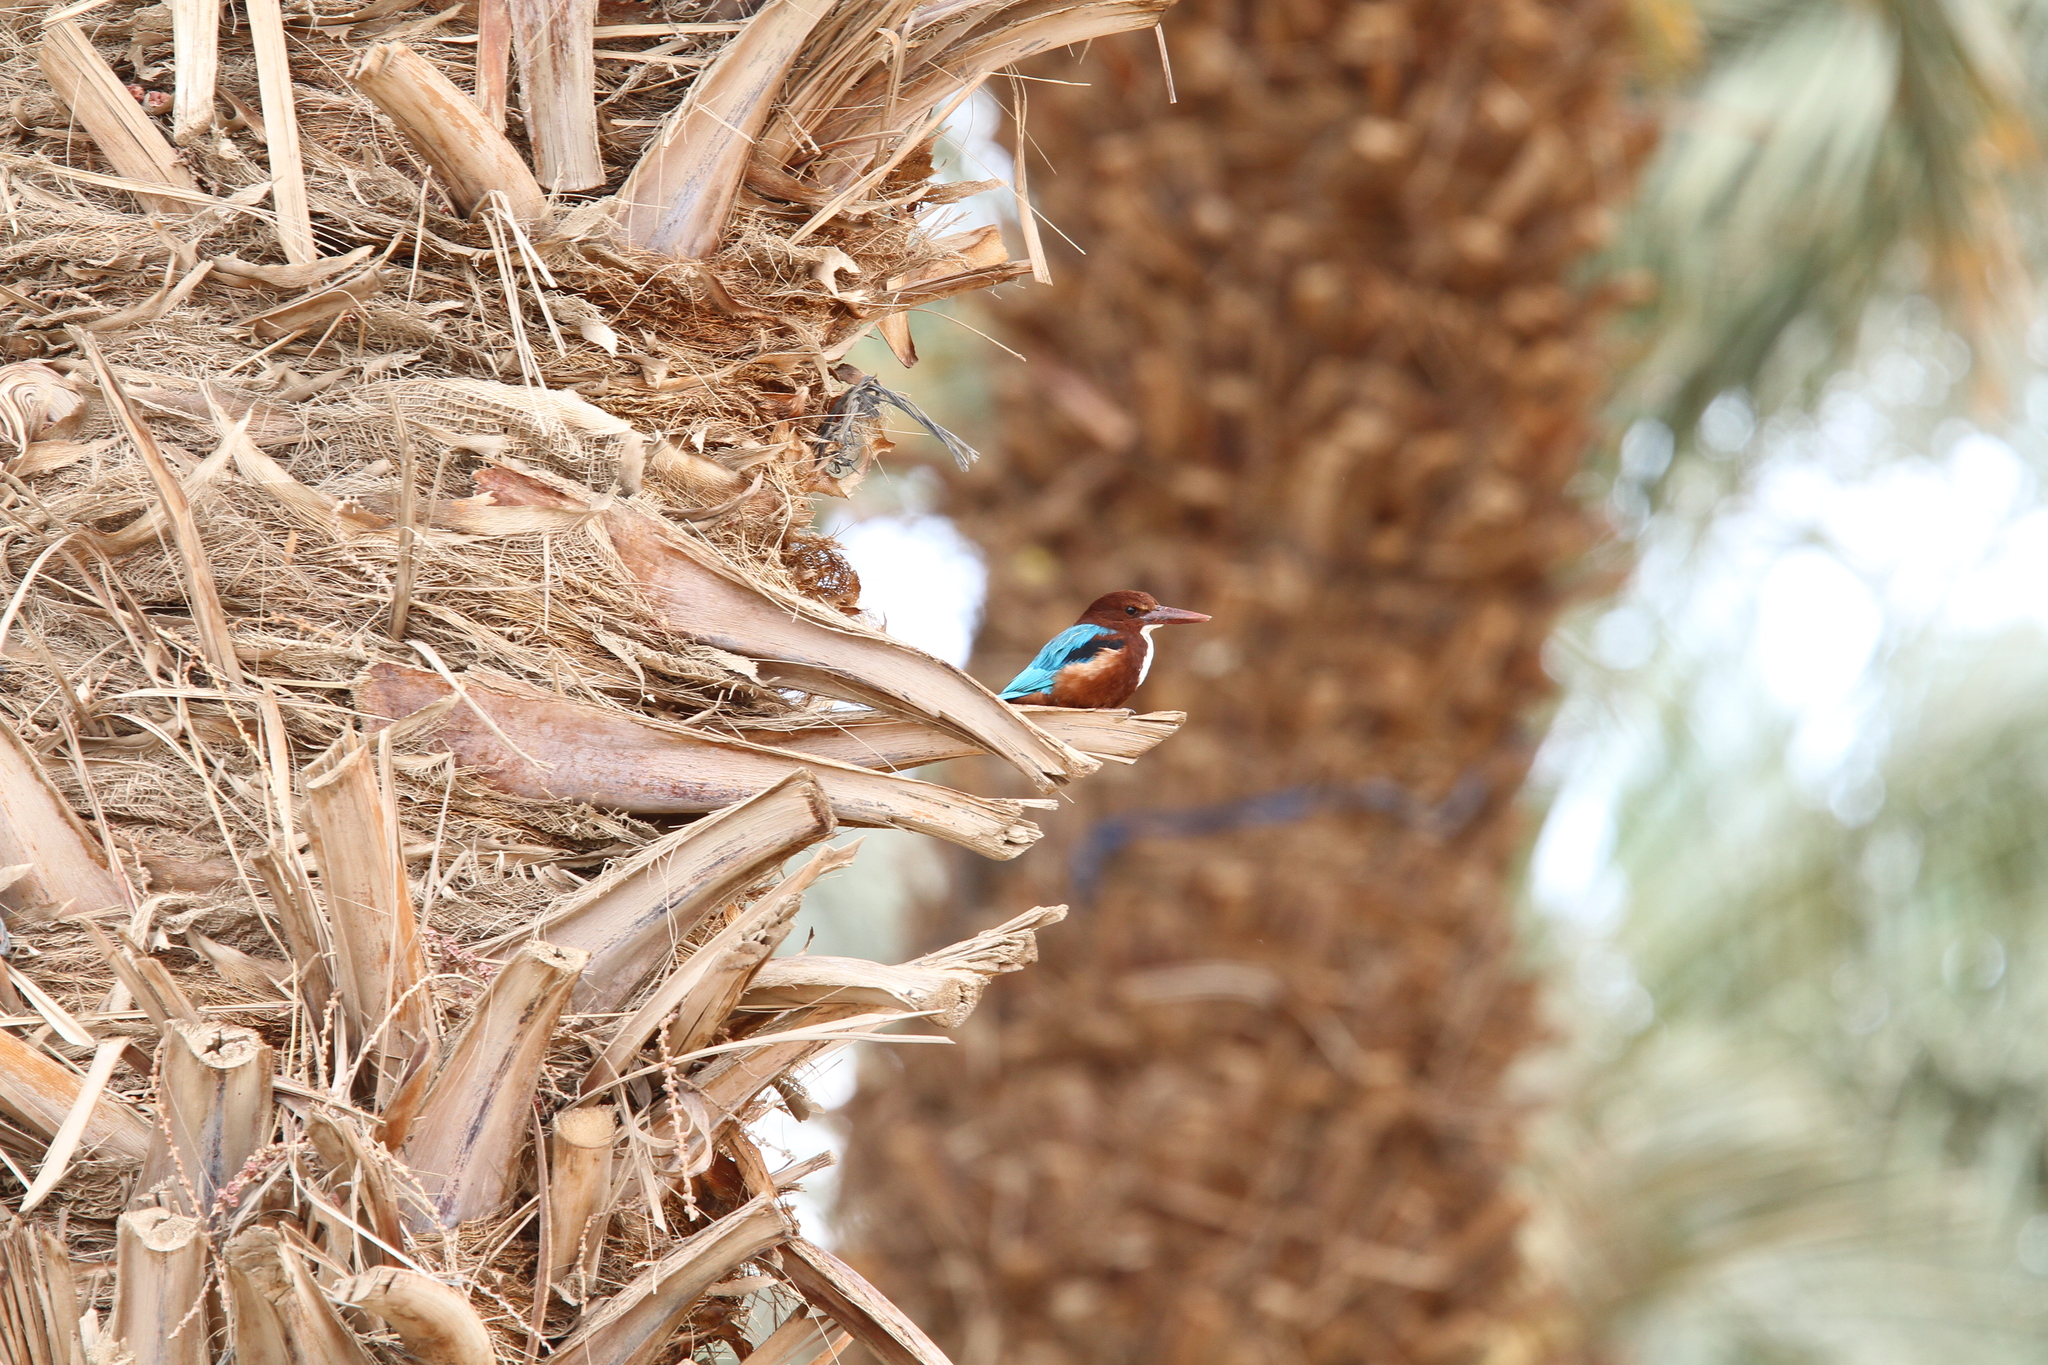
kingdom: Animalia
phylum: Chordata
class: Aves
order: Coraciiformes
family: Alcedinidae
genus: Halcyon
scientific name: Halcyon smyrnensis
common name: White-throated kingfisher
